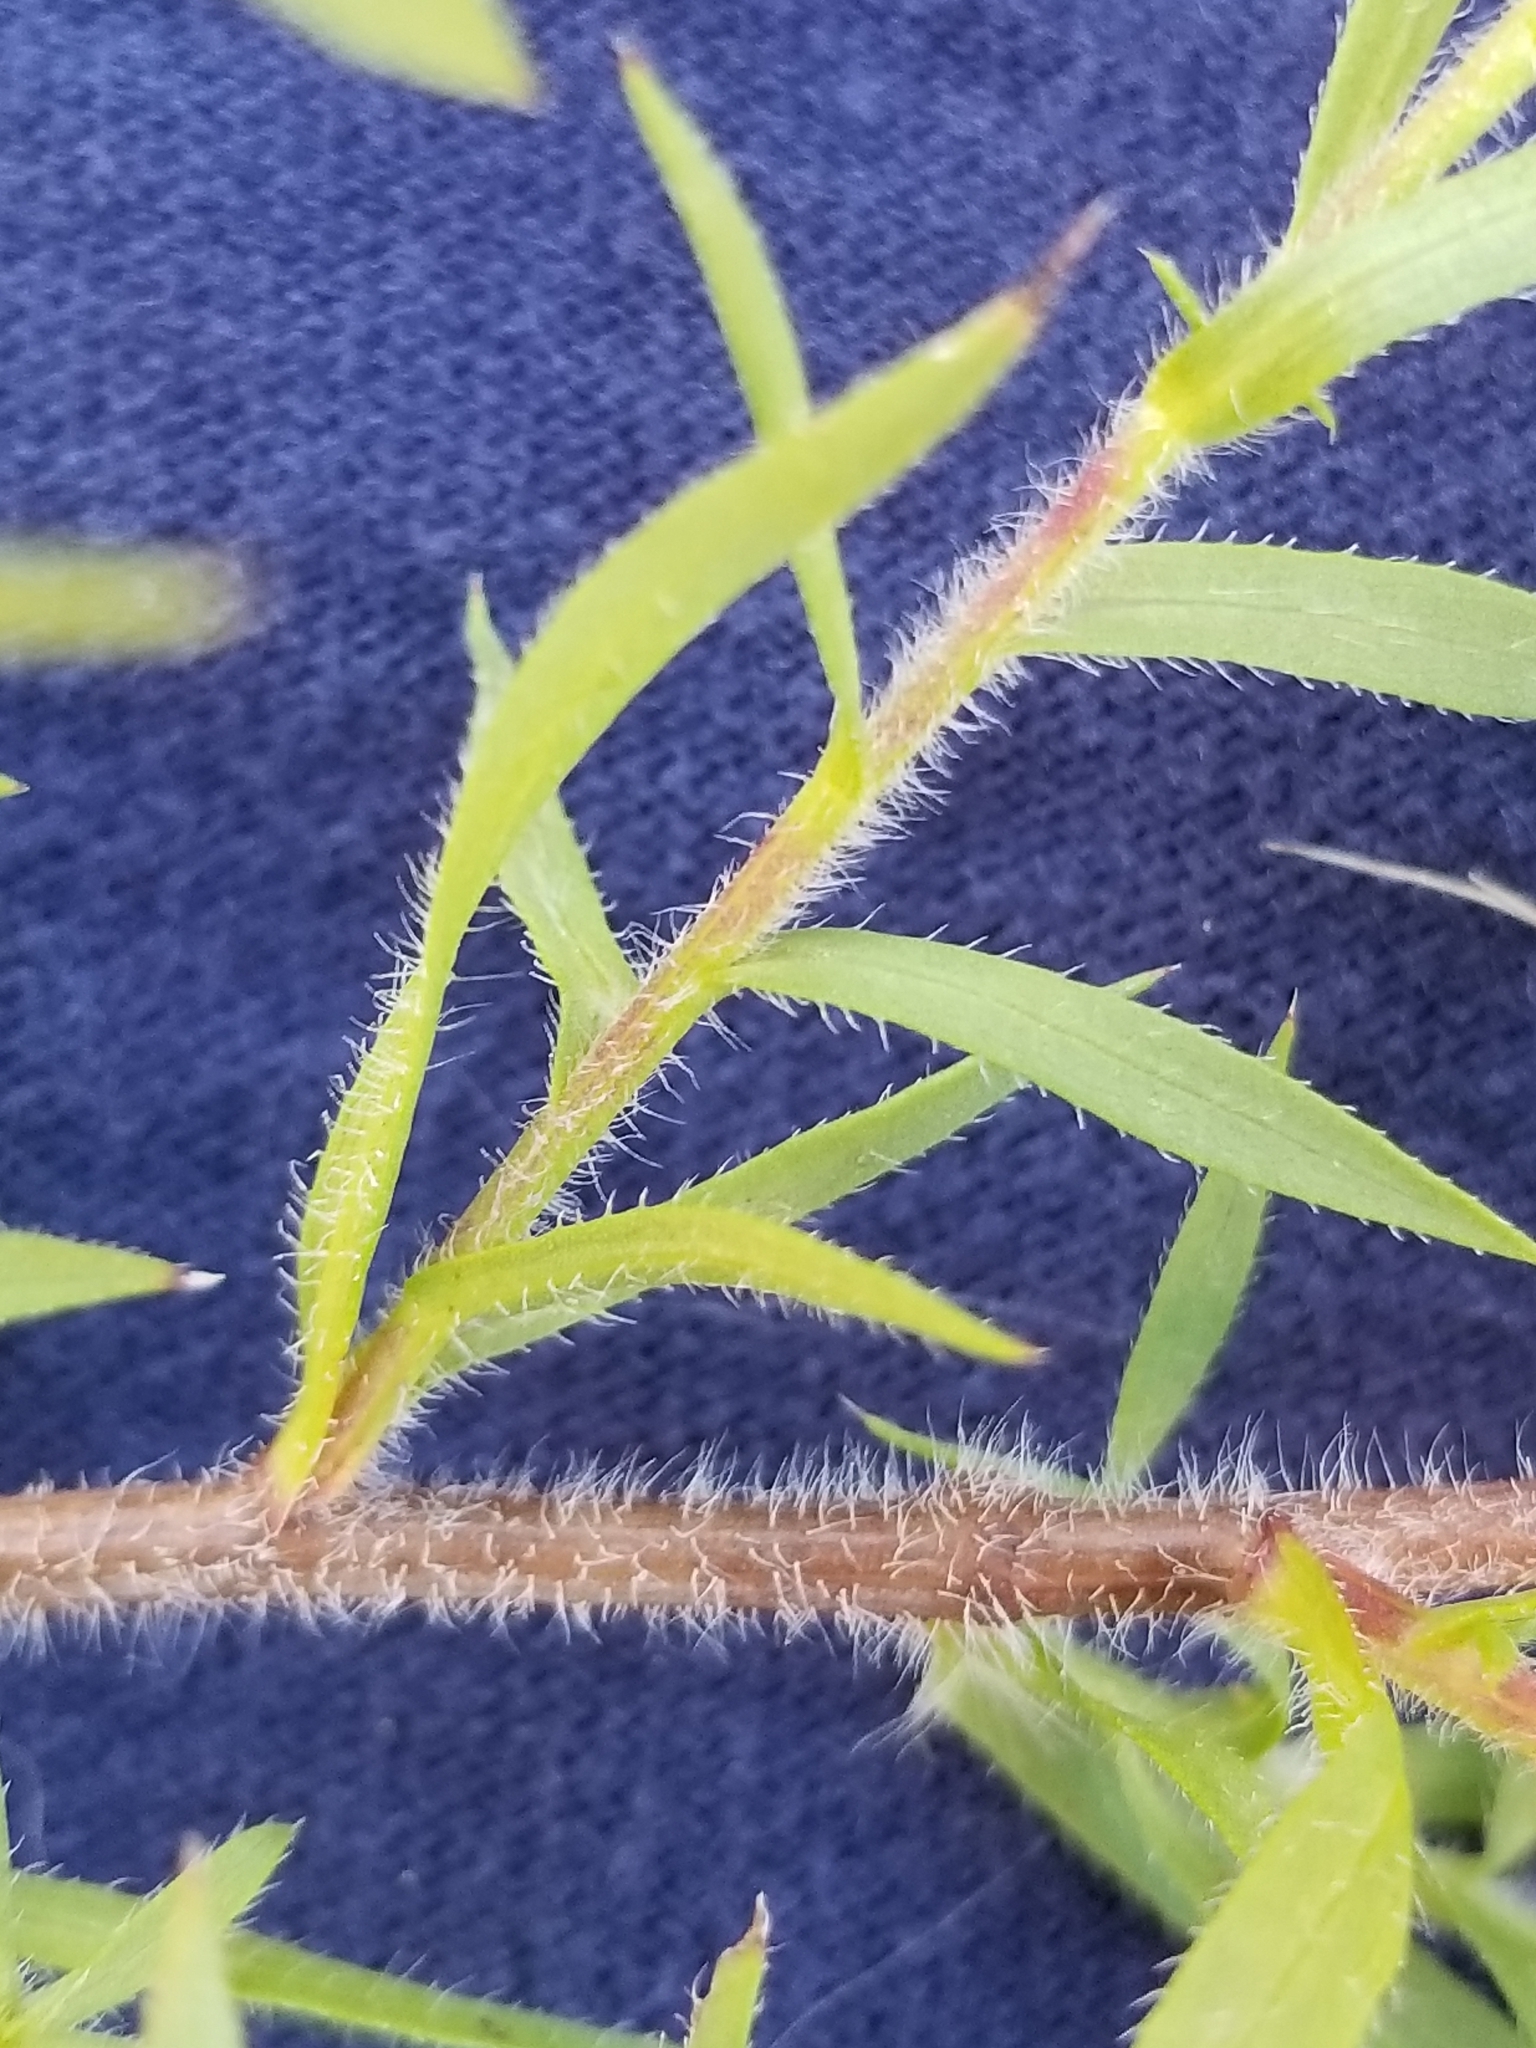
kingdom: Plantae
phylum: Tracheophyta
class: Magnoliopsida
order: Asterales
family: Asteraceae
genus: Symphyotrichum
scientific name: Symphyotrichum pilosum
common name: Awl aster
